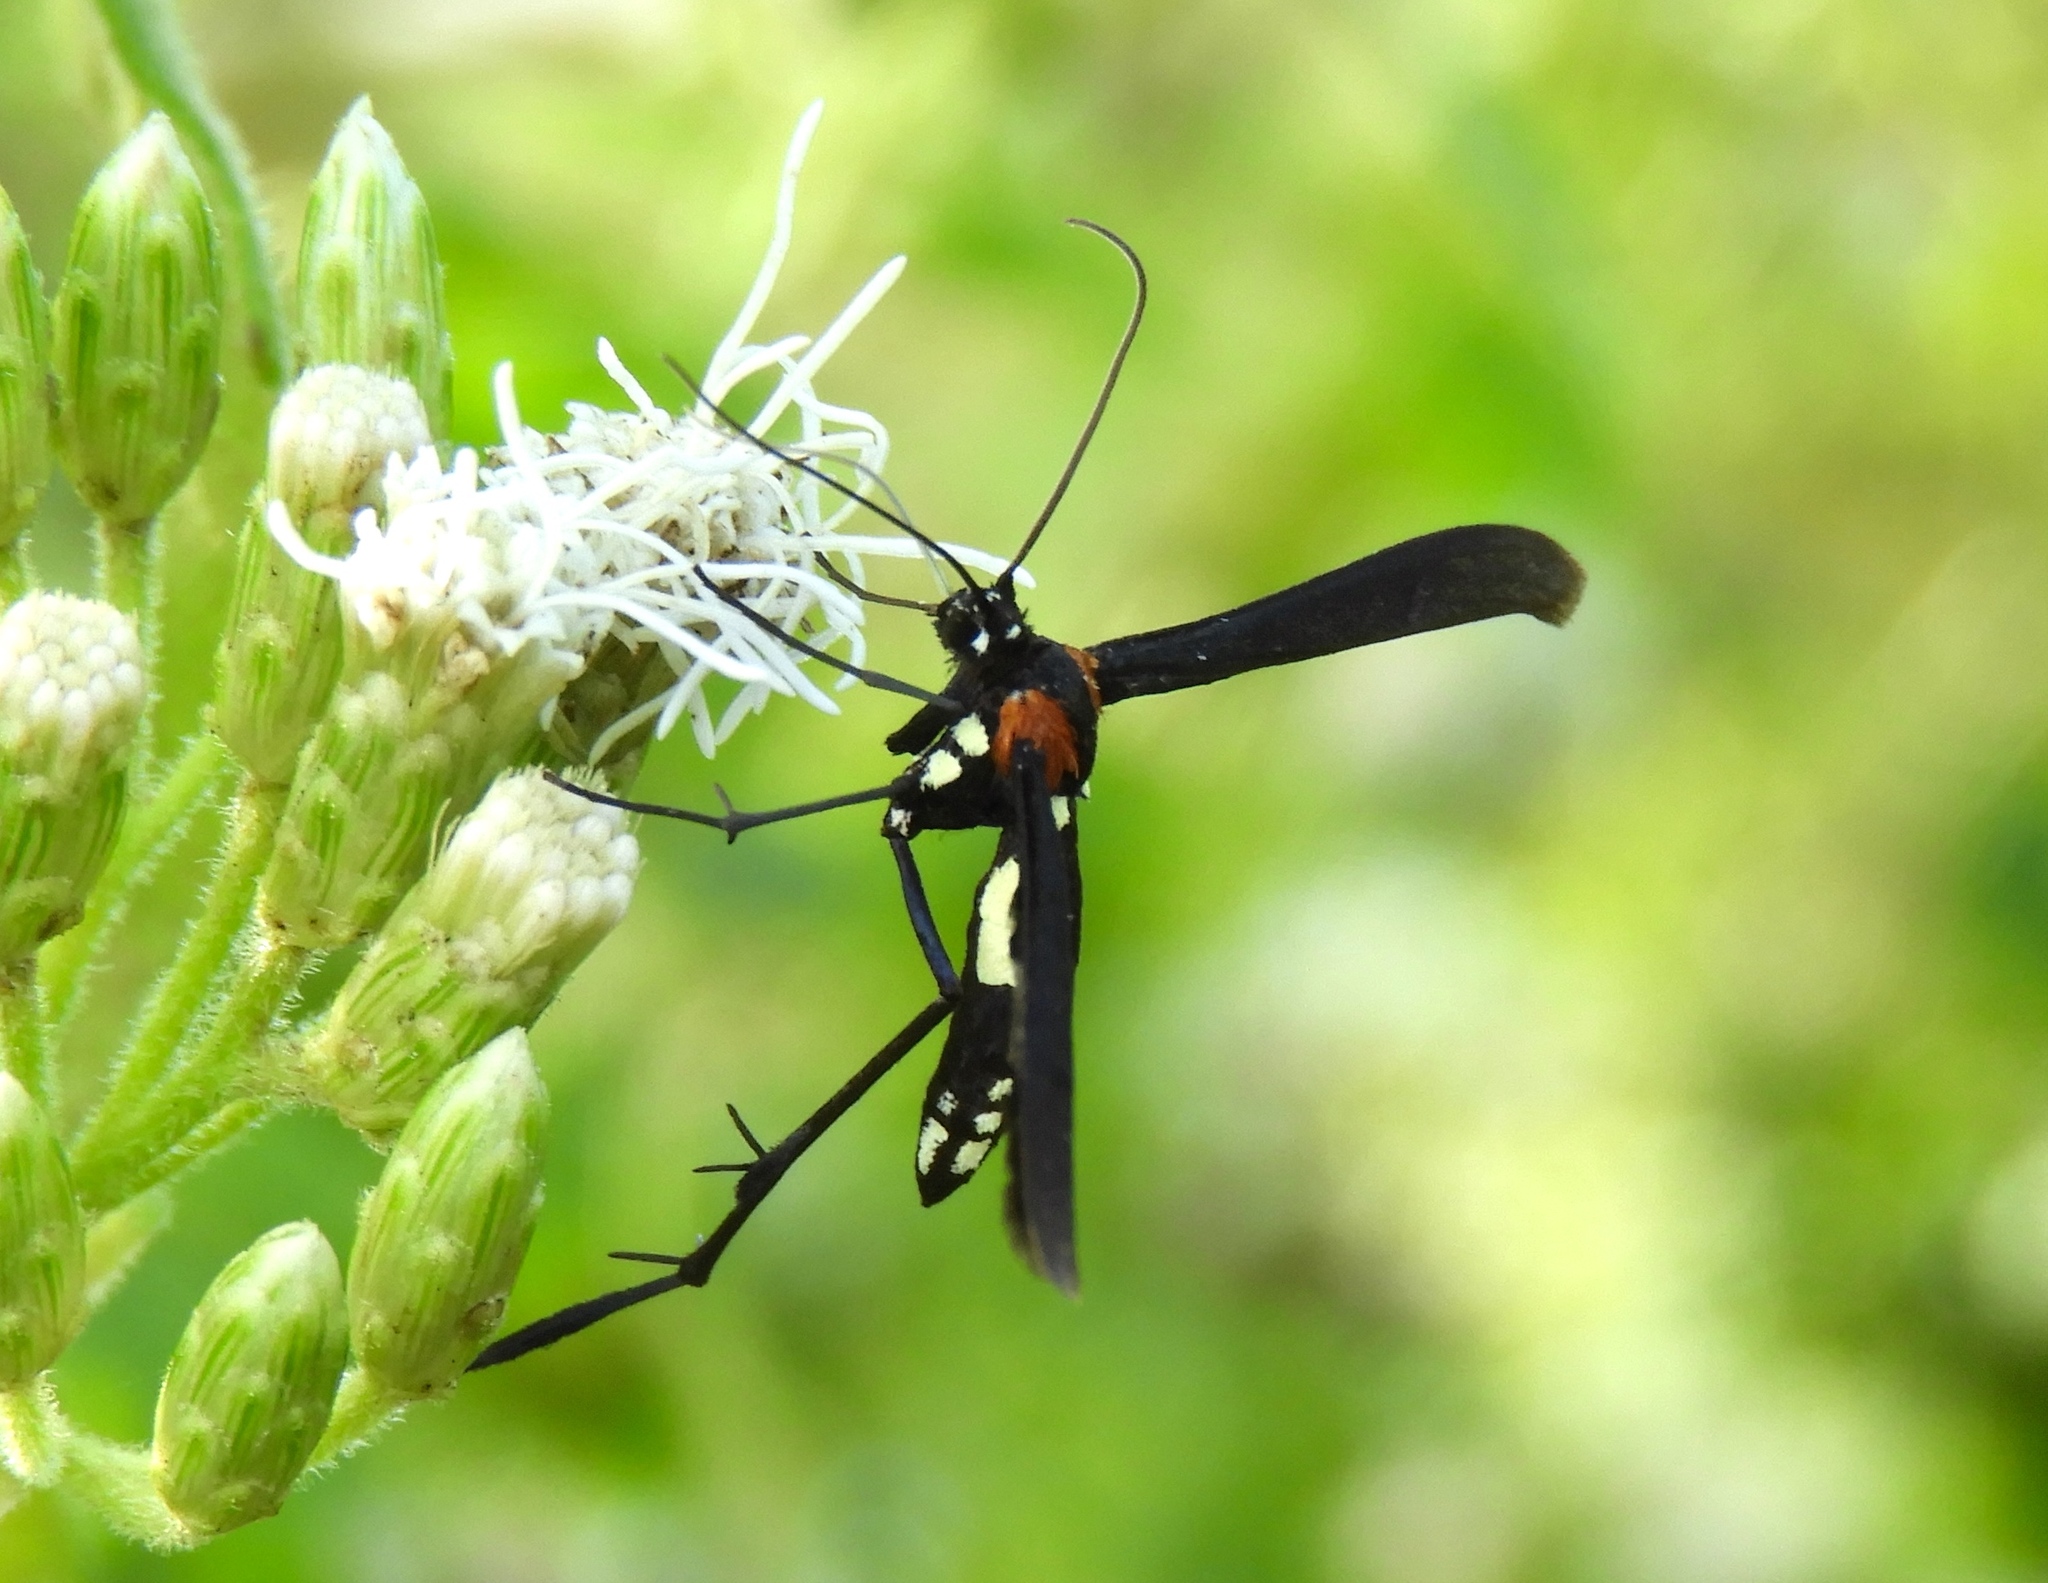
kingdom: Animalia
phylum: Arthropoda
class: Insecta
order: Lepidoptera
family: Pterophoridae
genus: Hellinsia
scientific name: Hellinsia chamelai
